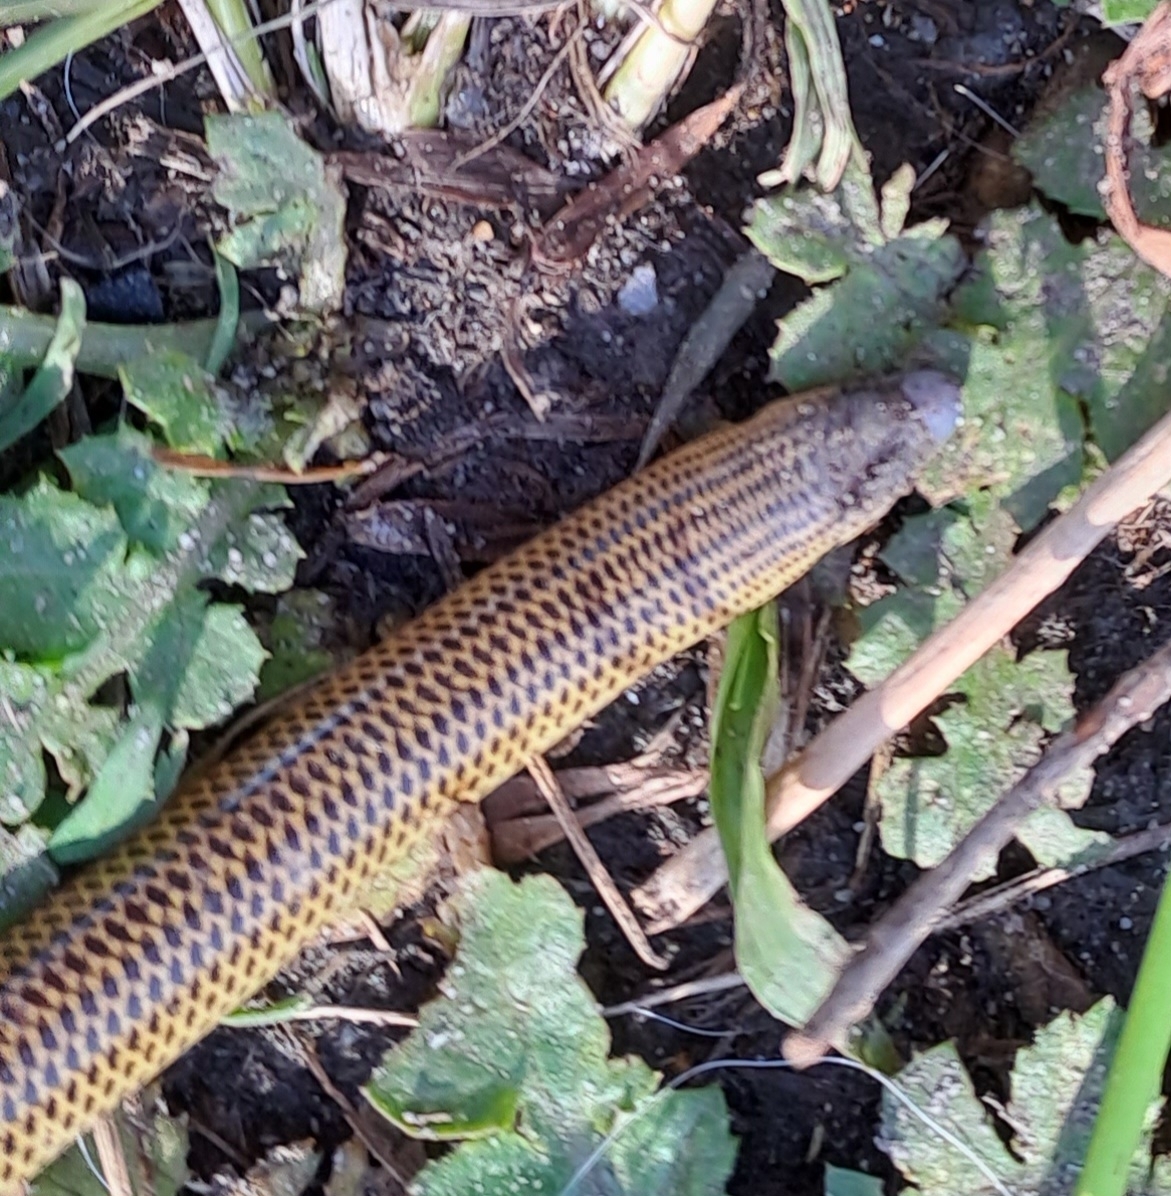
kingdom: Animalia
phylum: Chordata
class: Squamata
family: Scincidae
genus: Acontias
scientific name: Acontias meleagris
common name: Cape legless skink
